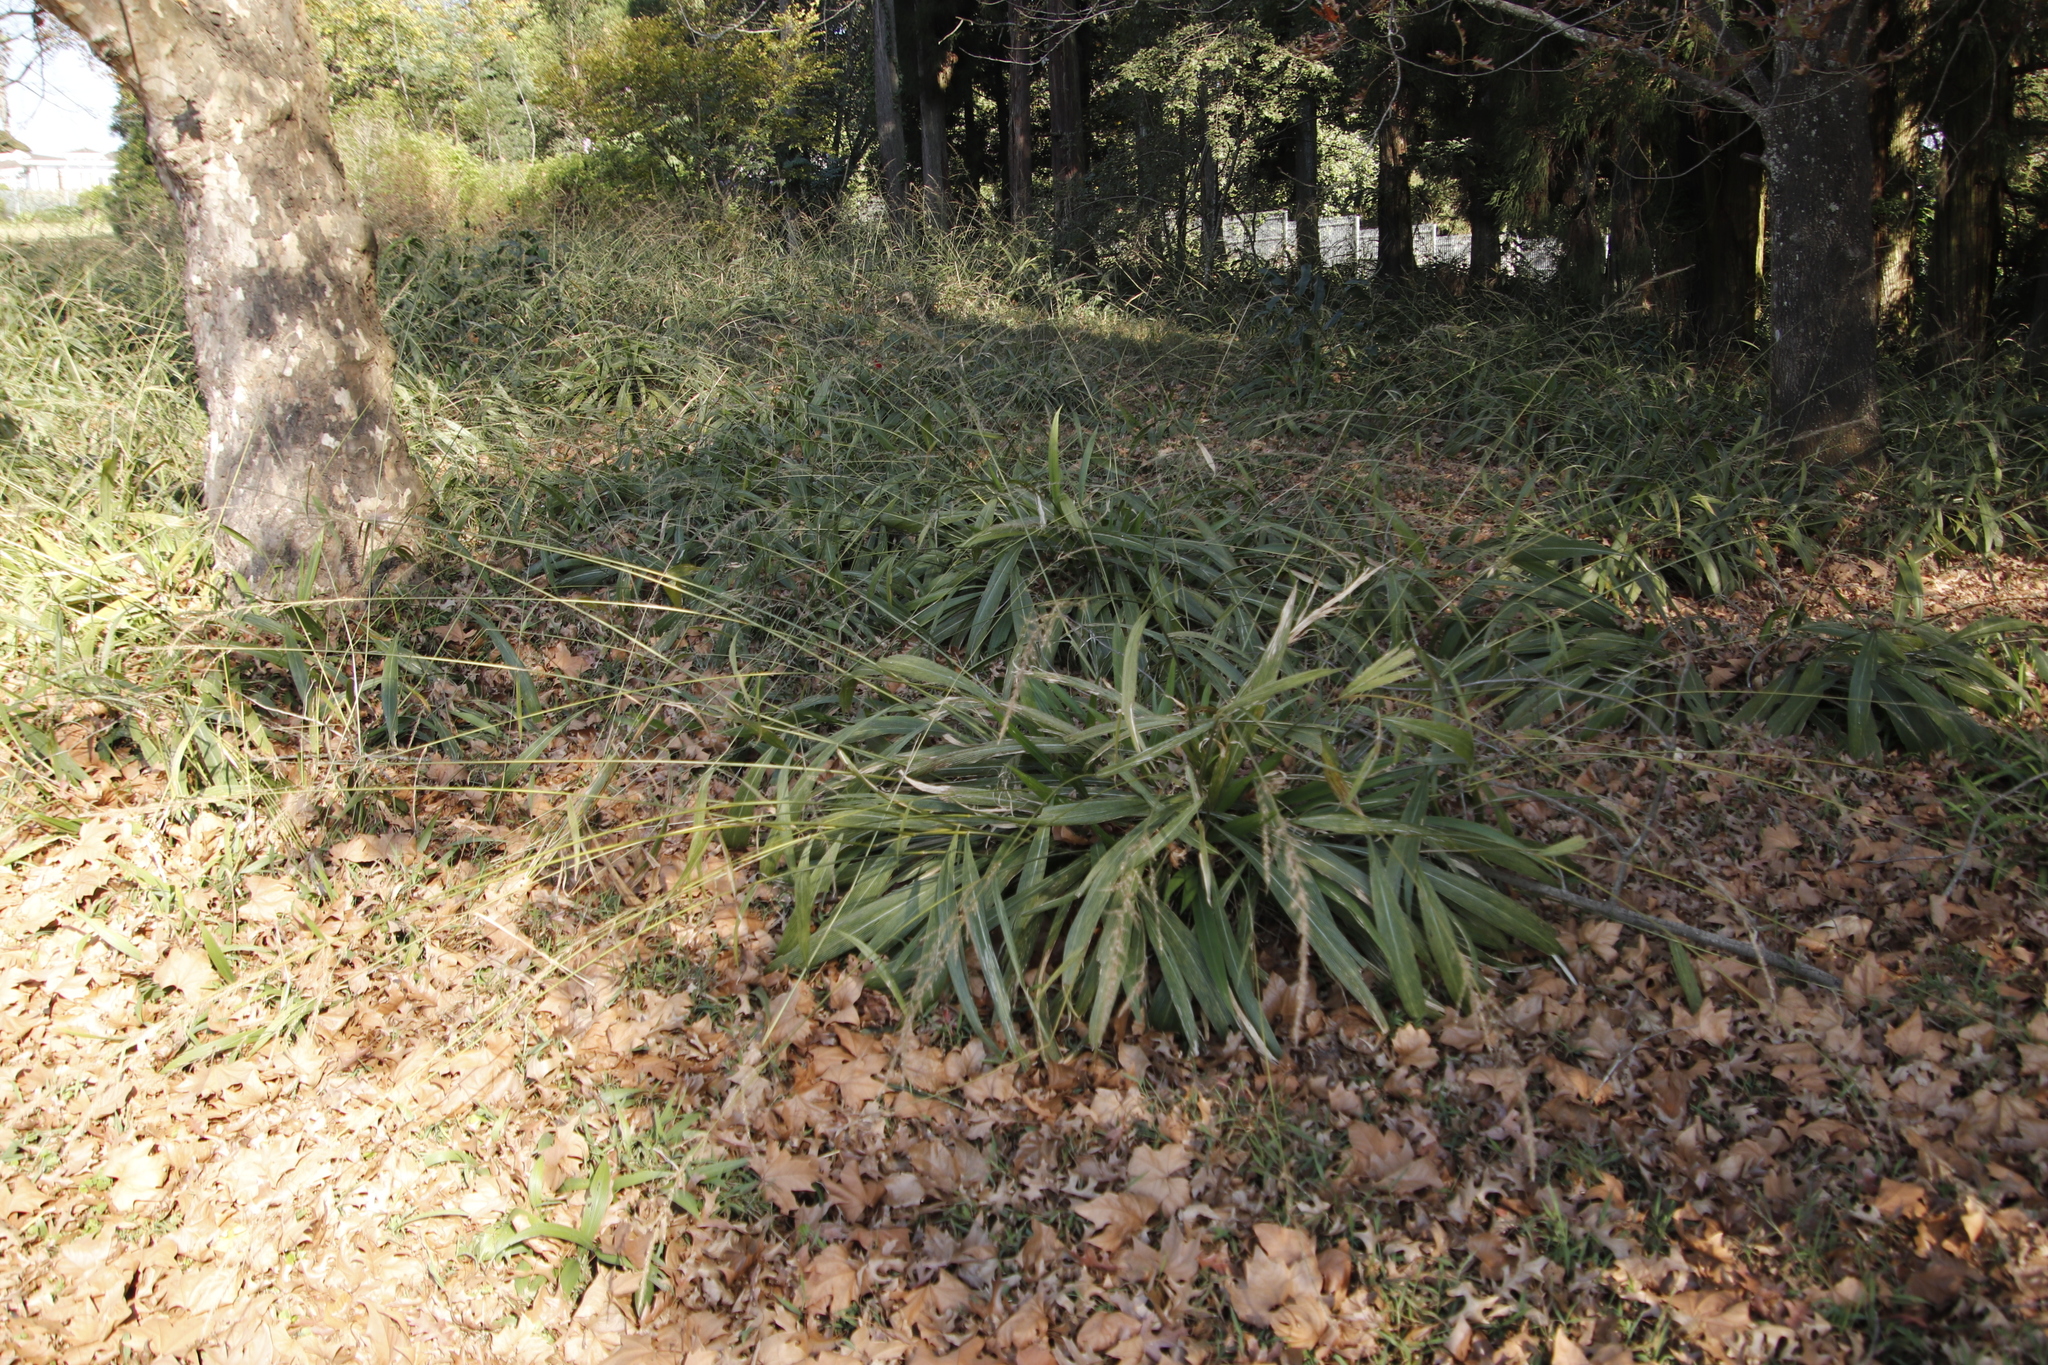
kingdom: Plantae
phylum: Tracheophyta
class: Liliopsida
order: Poales
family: Poaceae
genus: Setaria
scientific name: Setaria megaphylla
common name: Bigleaf bristlegrass
